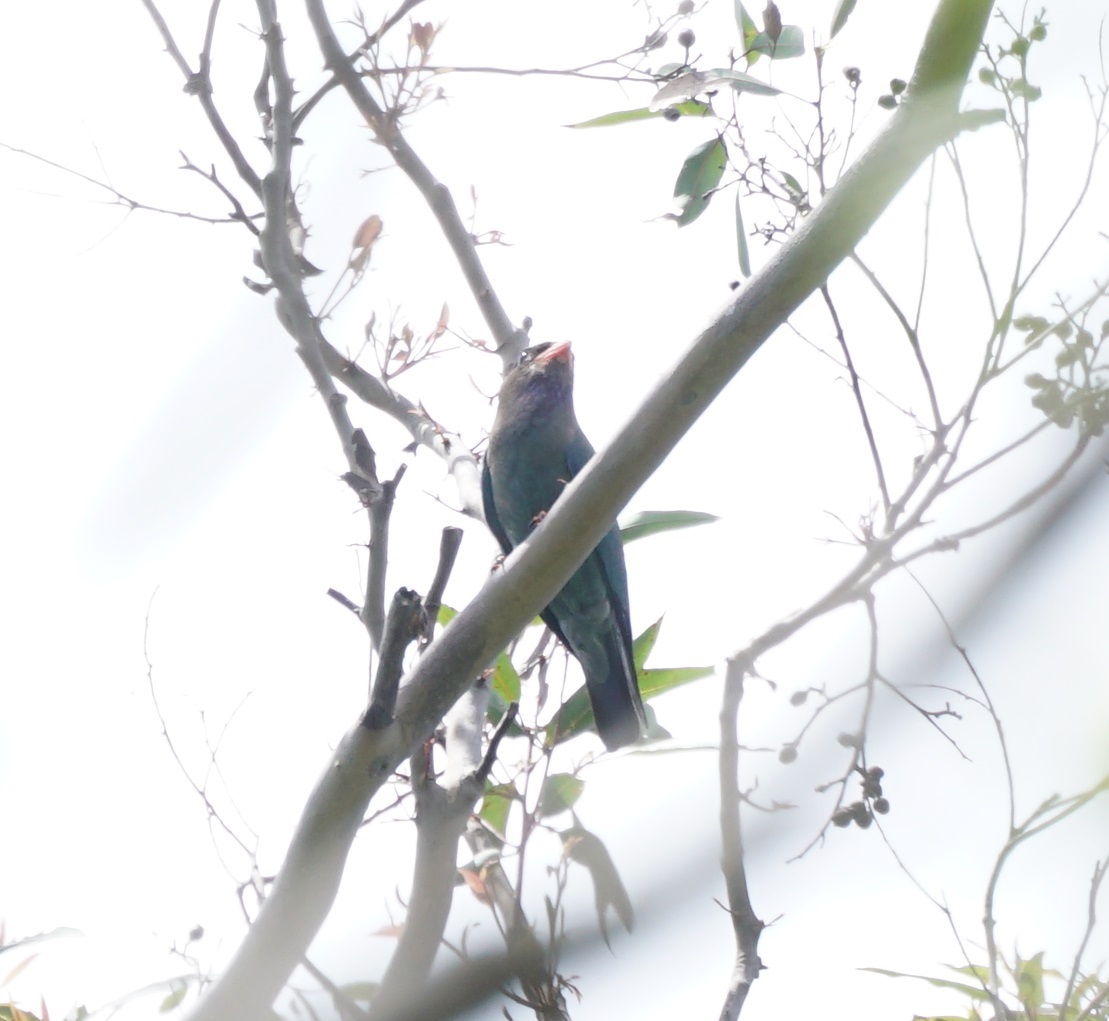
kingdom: Animalia
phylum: Chordata
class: Aves
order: Coraciiformes
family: Coraciidae
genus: Eurystomus
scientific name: Eurystomus orientalis
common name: Oriental dollarbird
